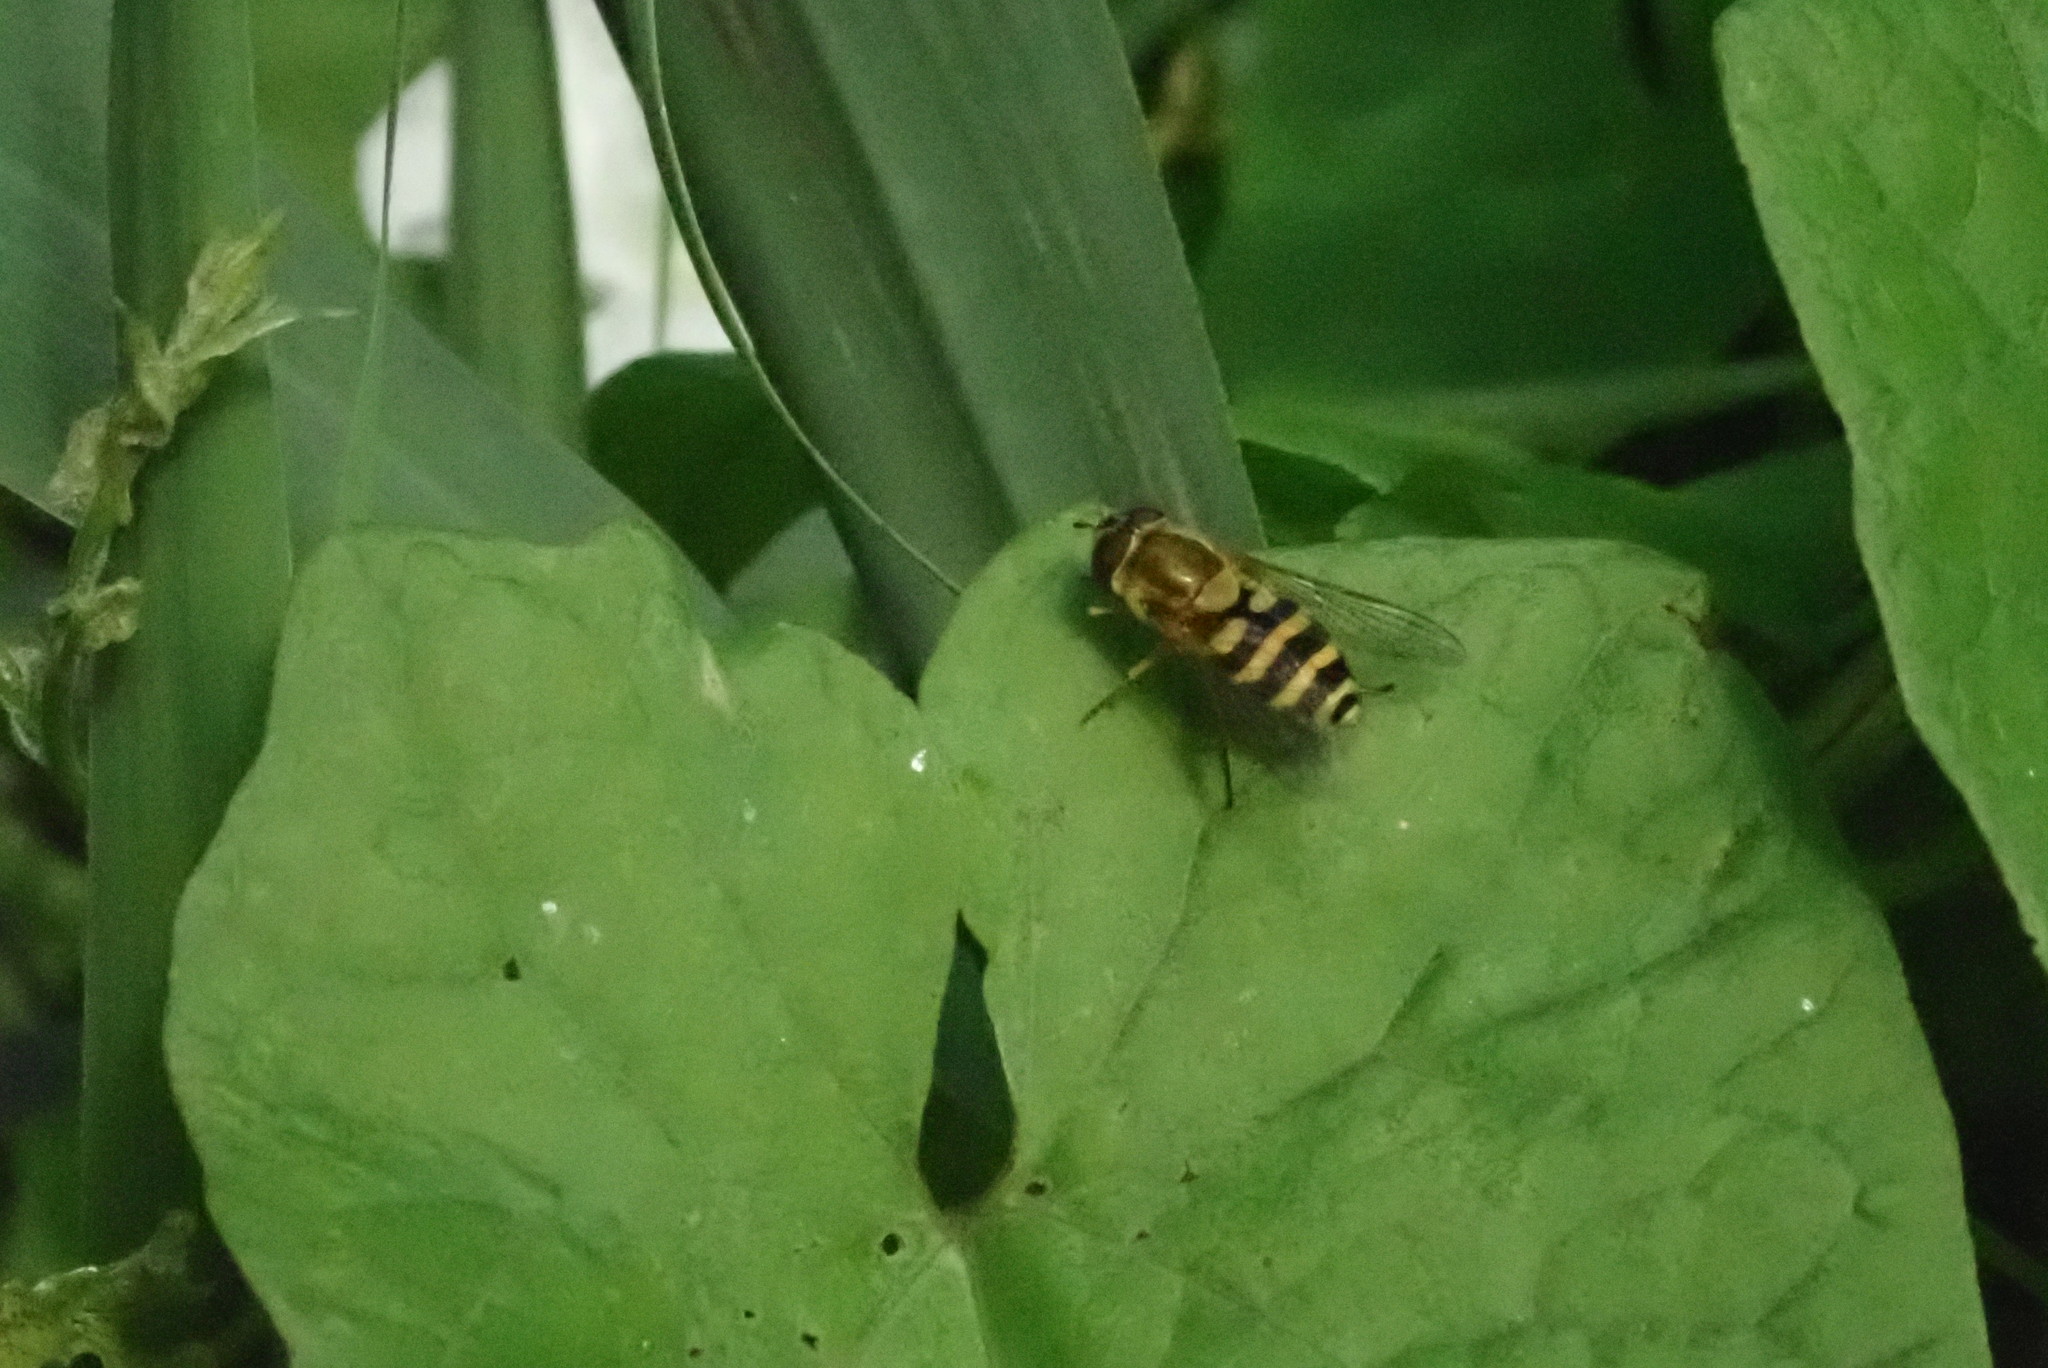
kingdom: Animalia
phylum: Arthropoda
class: Insecta
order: Diptera
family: Syrphidae
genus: Syrphus
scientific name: Syrphus
